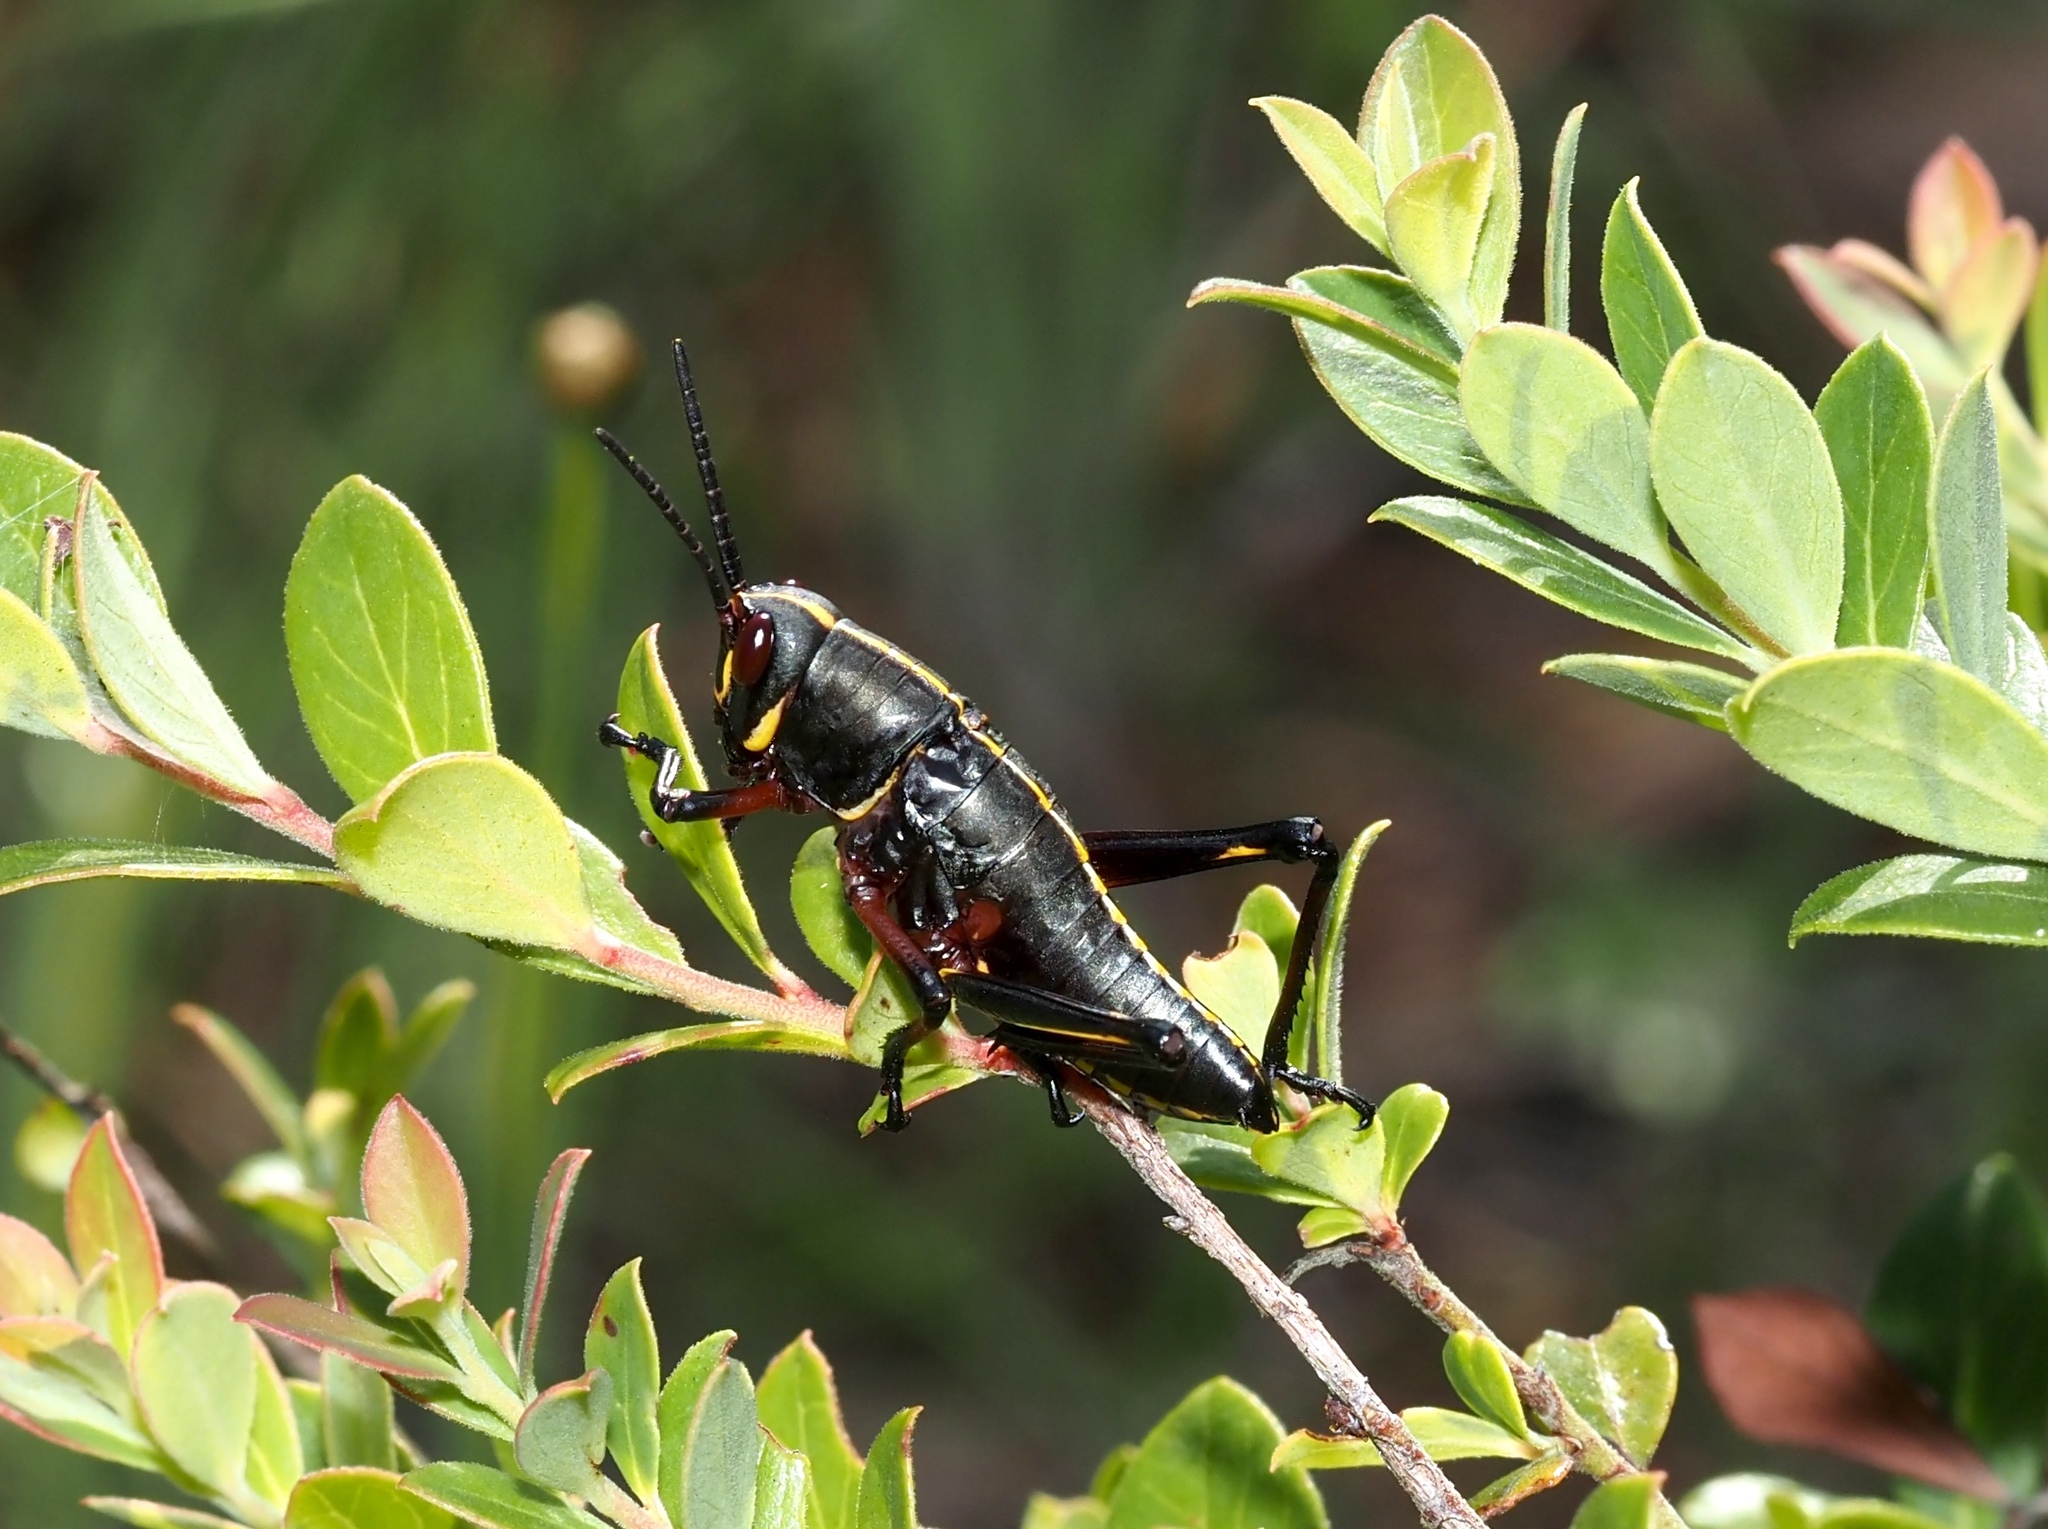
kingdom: Animalia
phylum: Arthropoda
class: Insecta
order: Orthoptera
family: Romaleidae
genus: Romalea
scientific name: Romalea microptera
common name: Eastern lubber grasshopper
